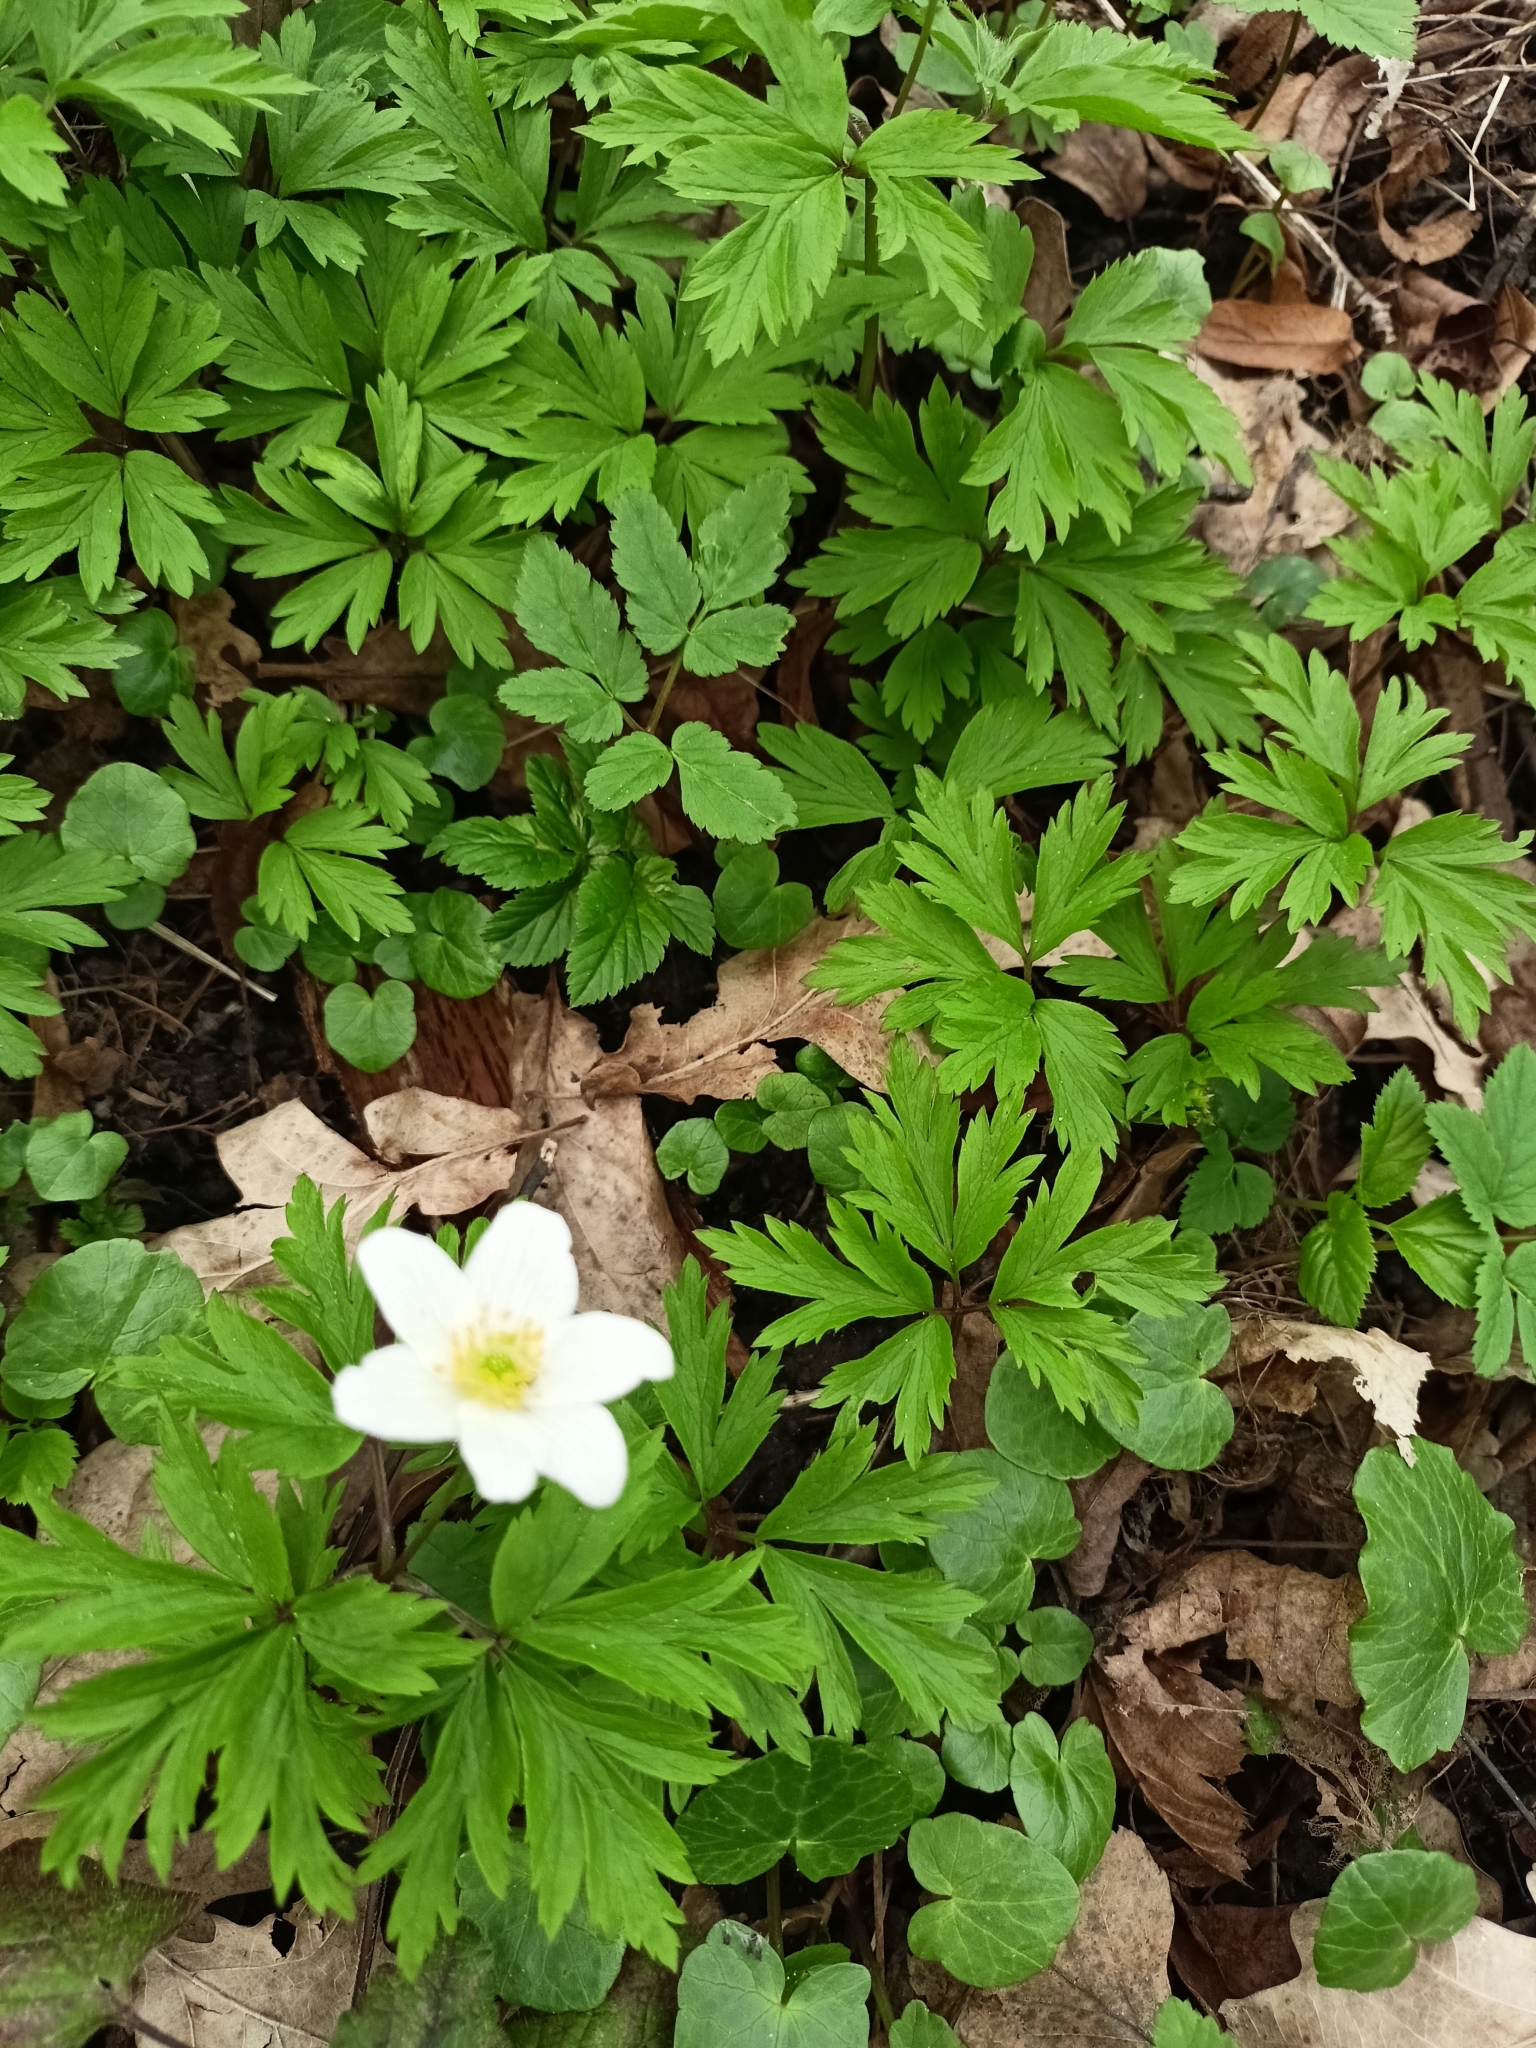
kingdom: Plantae
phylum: Tracheophyta
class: Magnoliopsida
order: Ranunculales
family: Ranunculaceae
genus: Anemone
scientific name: Anemone nemorosa
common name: Wood anemone
